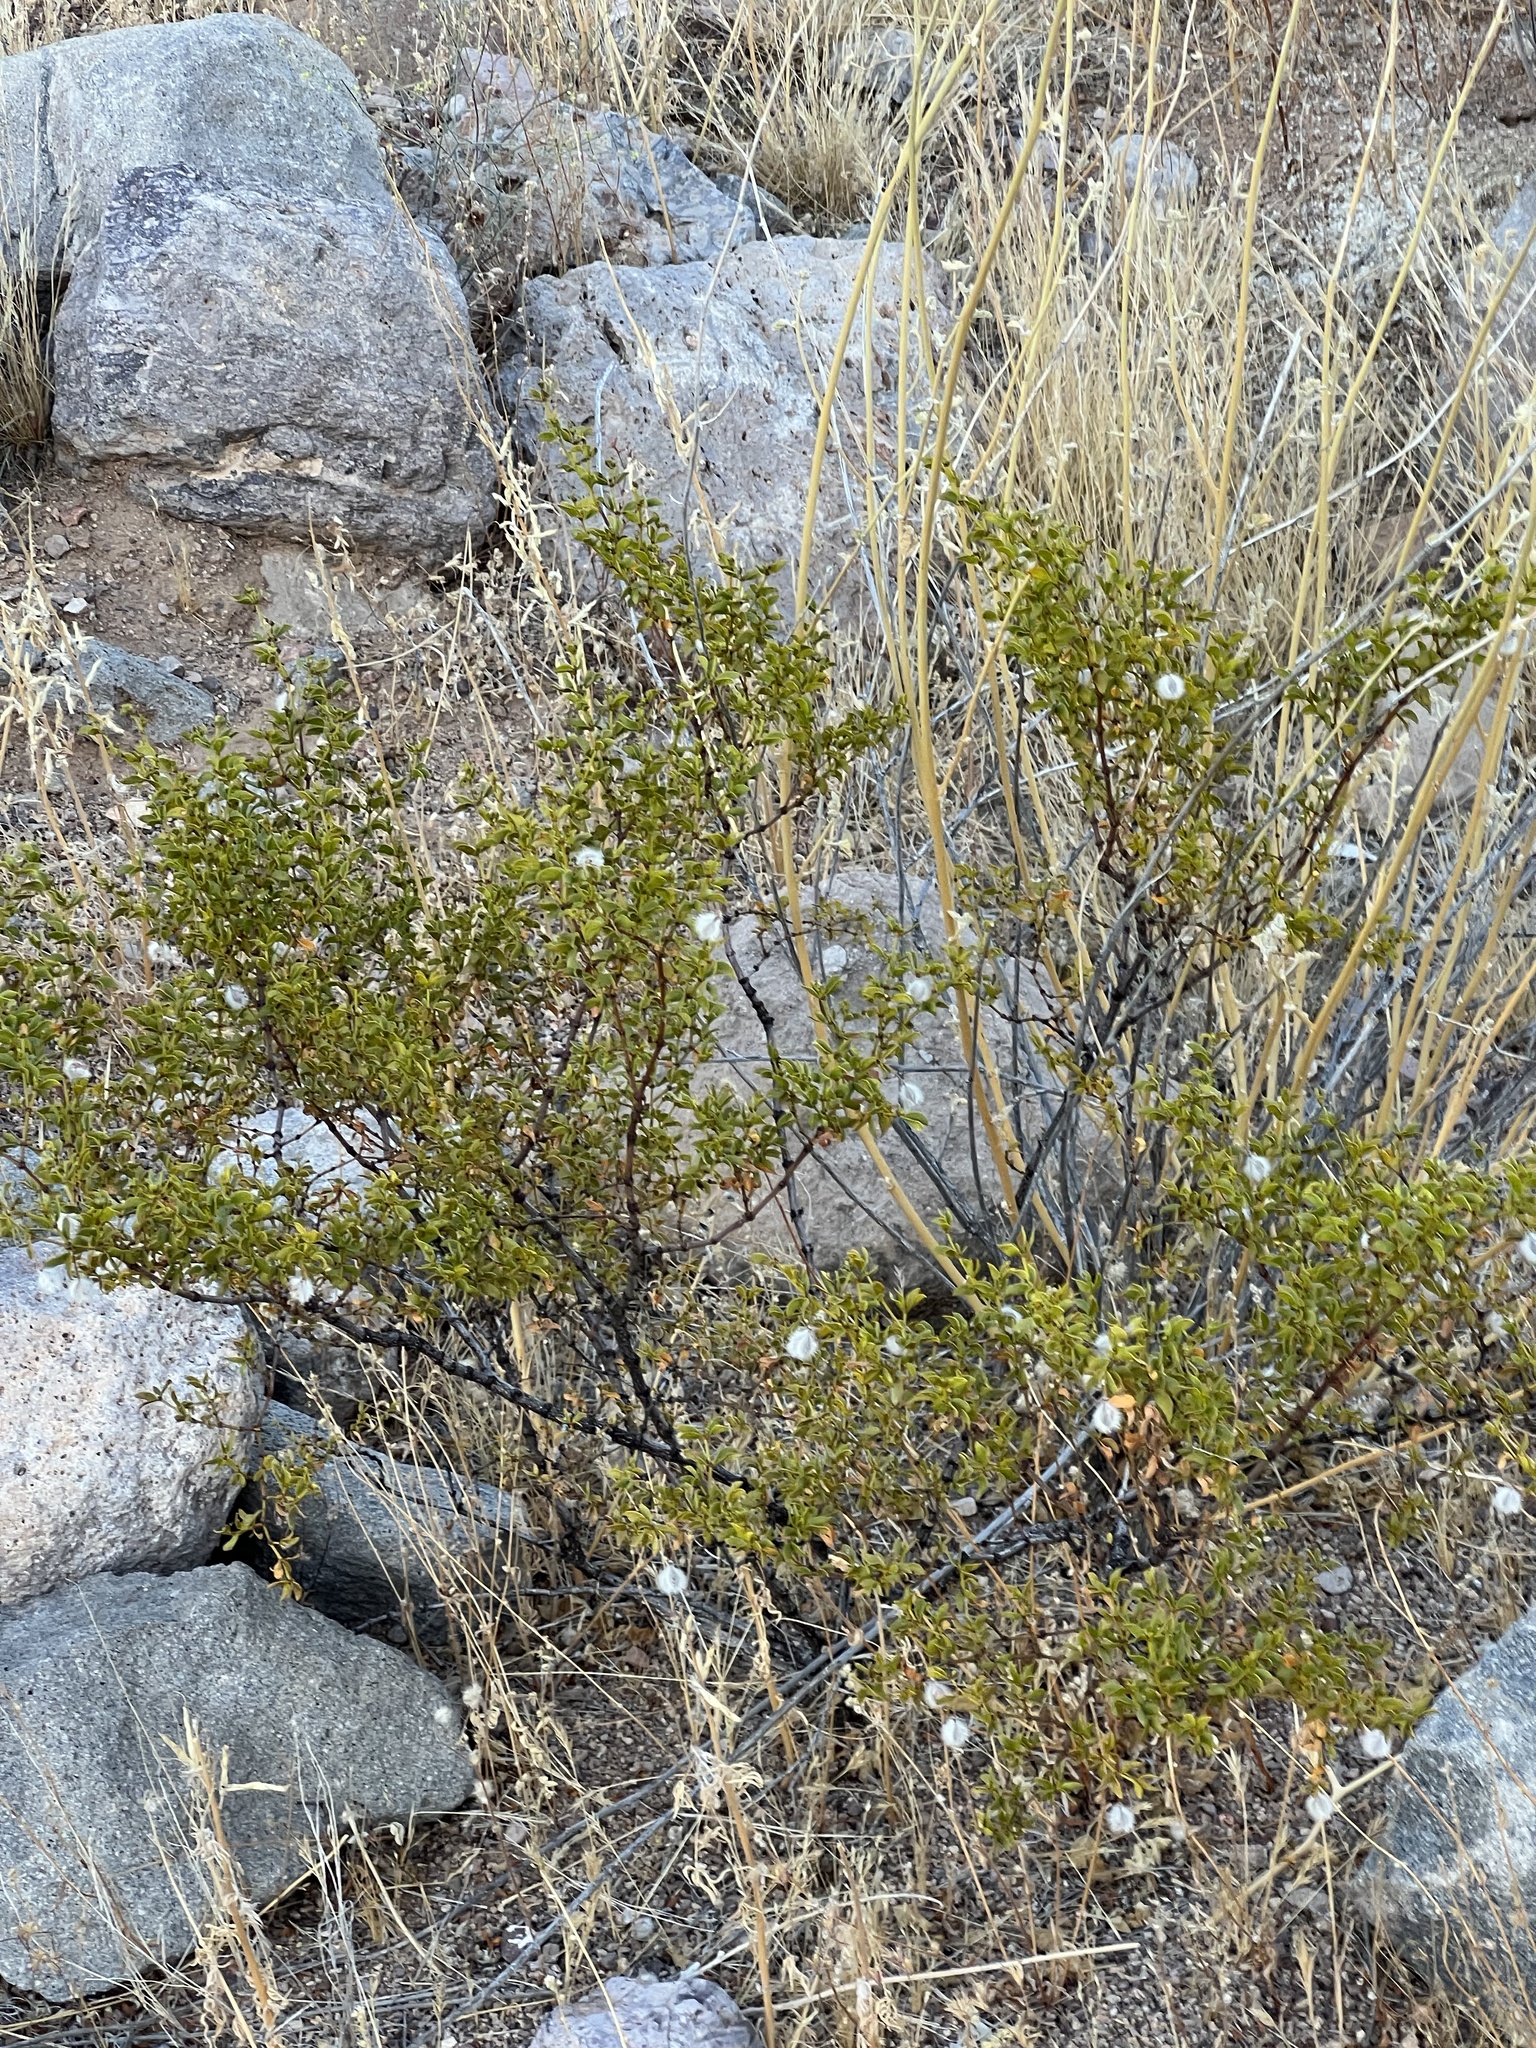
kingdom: Plantae
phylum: Tracheophyta
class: Magnoliopsida
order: Zygophyllales
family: Zygophyllaceae
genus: Larrea
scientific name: Larrea tridentata
